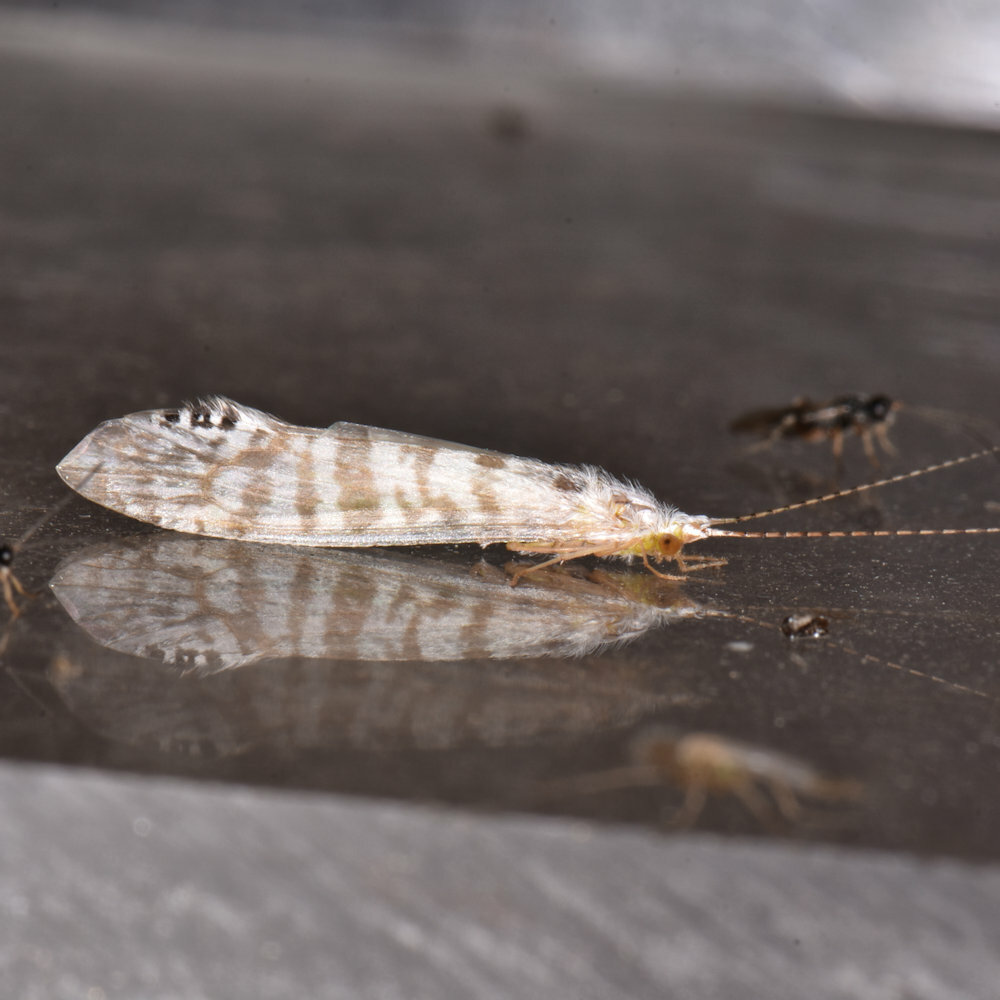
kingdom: Animalia
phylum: Arthropoda
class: Insecta
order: Trichoptera
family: Leptoceridae
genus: Nectopsyche
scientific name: Nectopsyche exquisita
